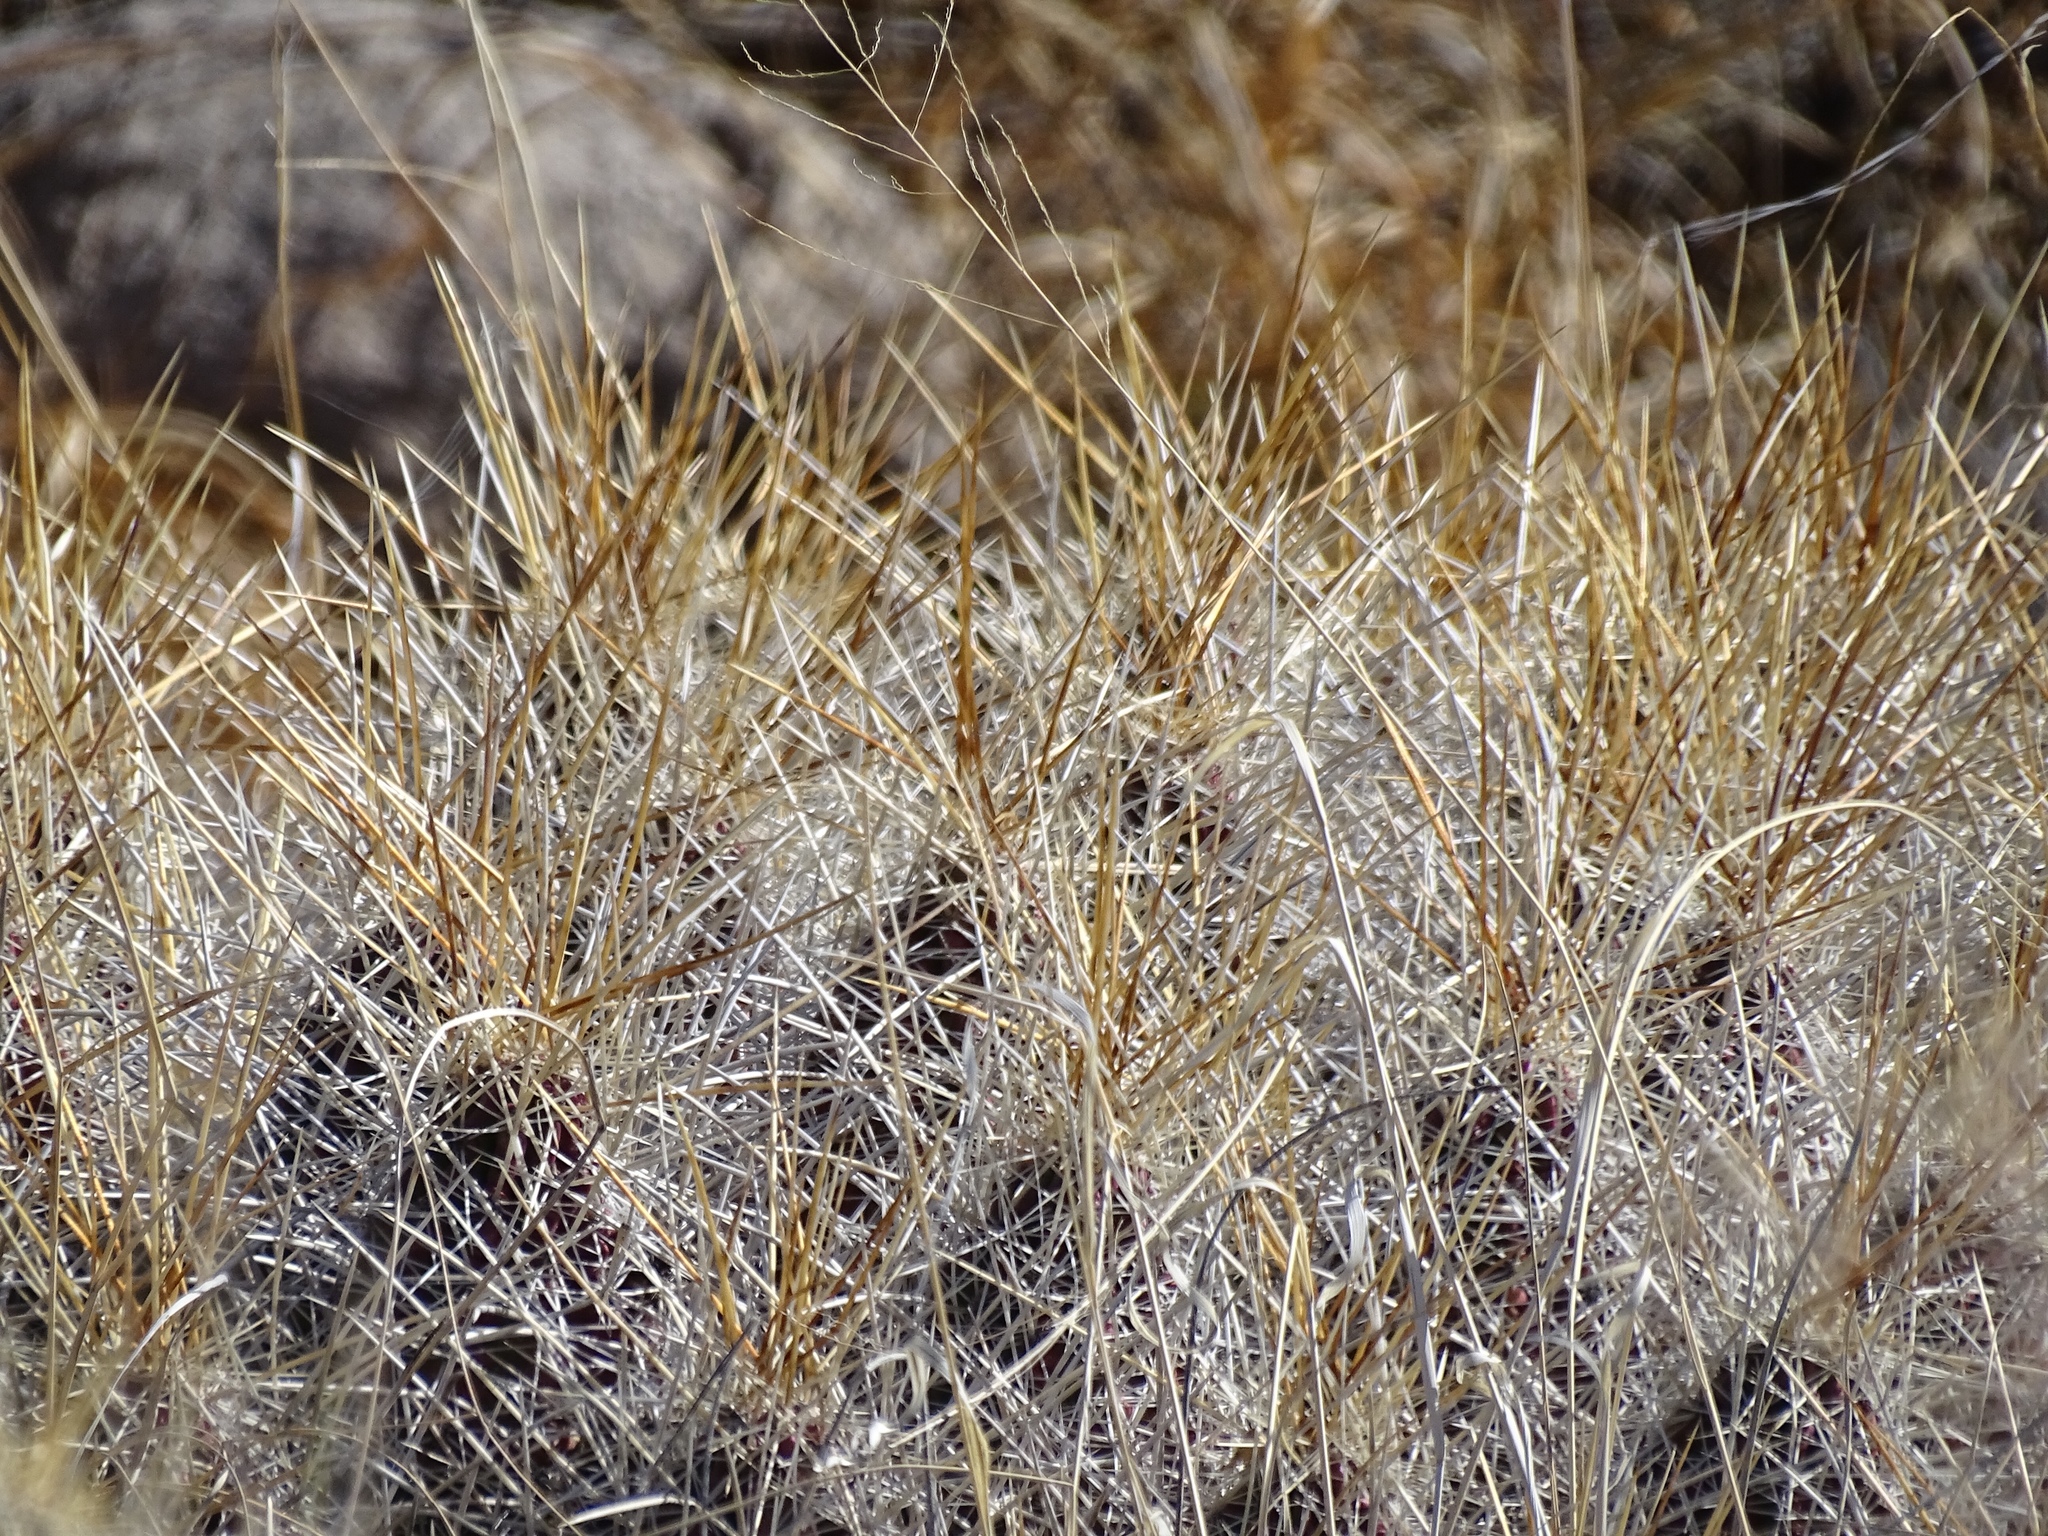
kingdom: Plantae
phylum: Tracheophyta
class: Magnoliopsida
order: Caryophyllales
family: Cactaceae
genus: Echinocereus
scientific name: Echinocereus stramineus
